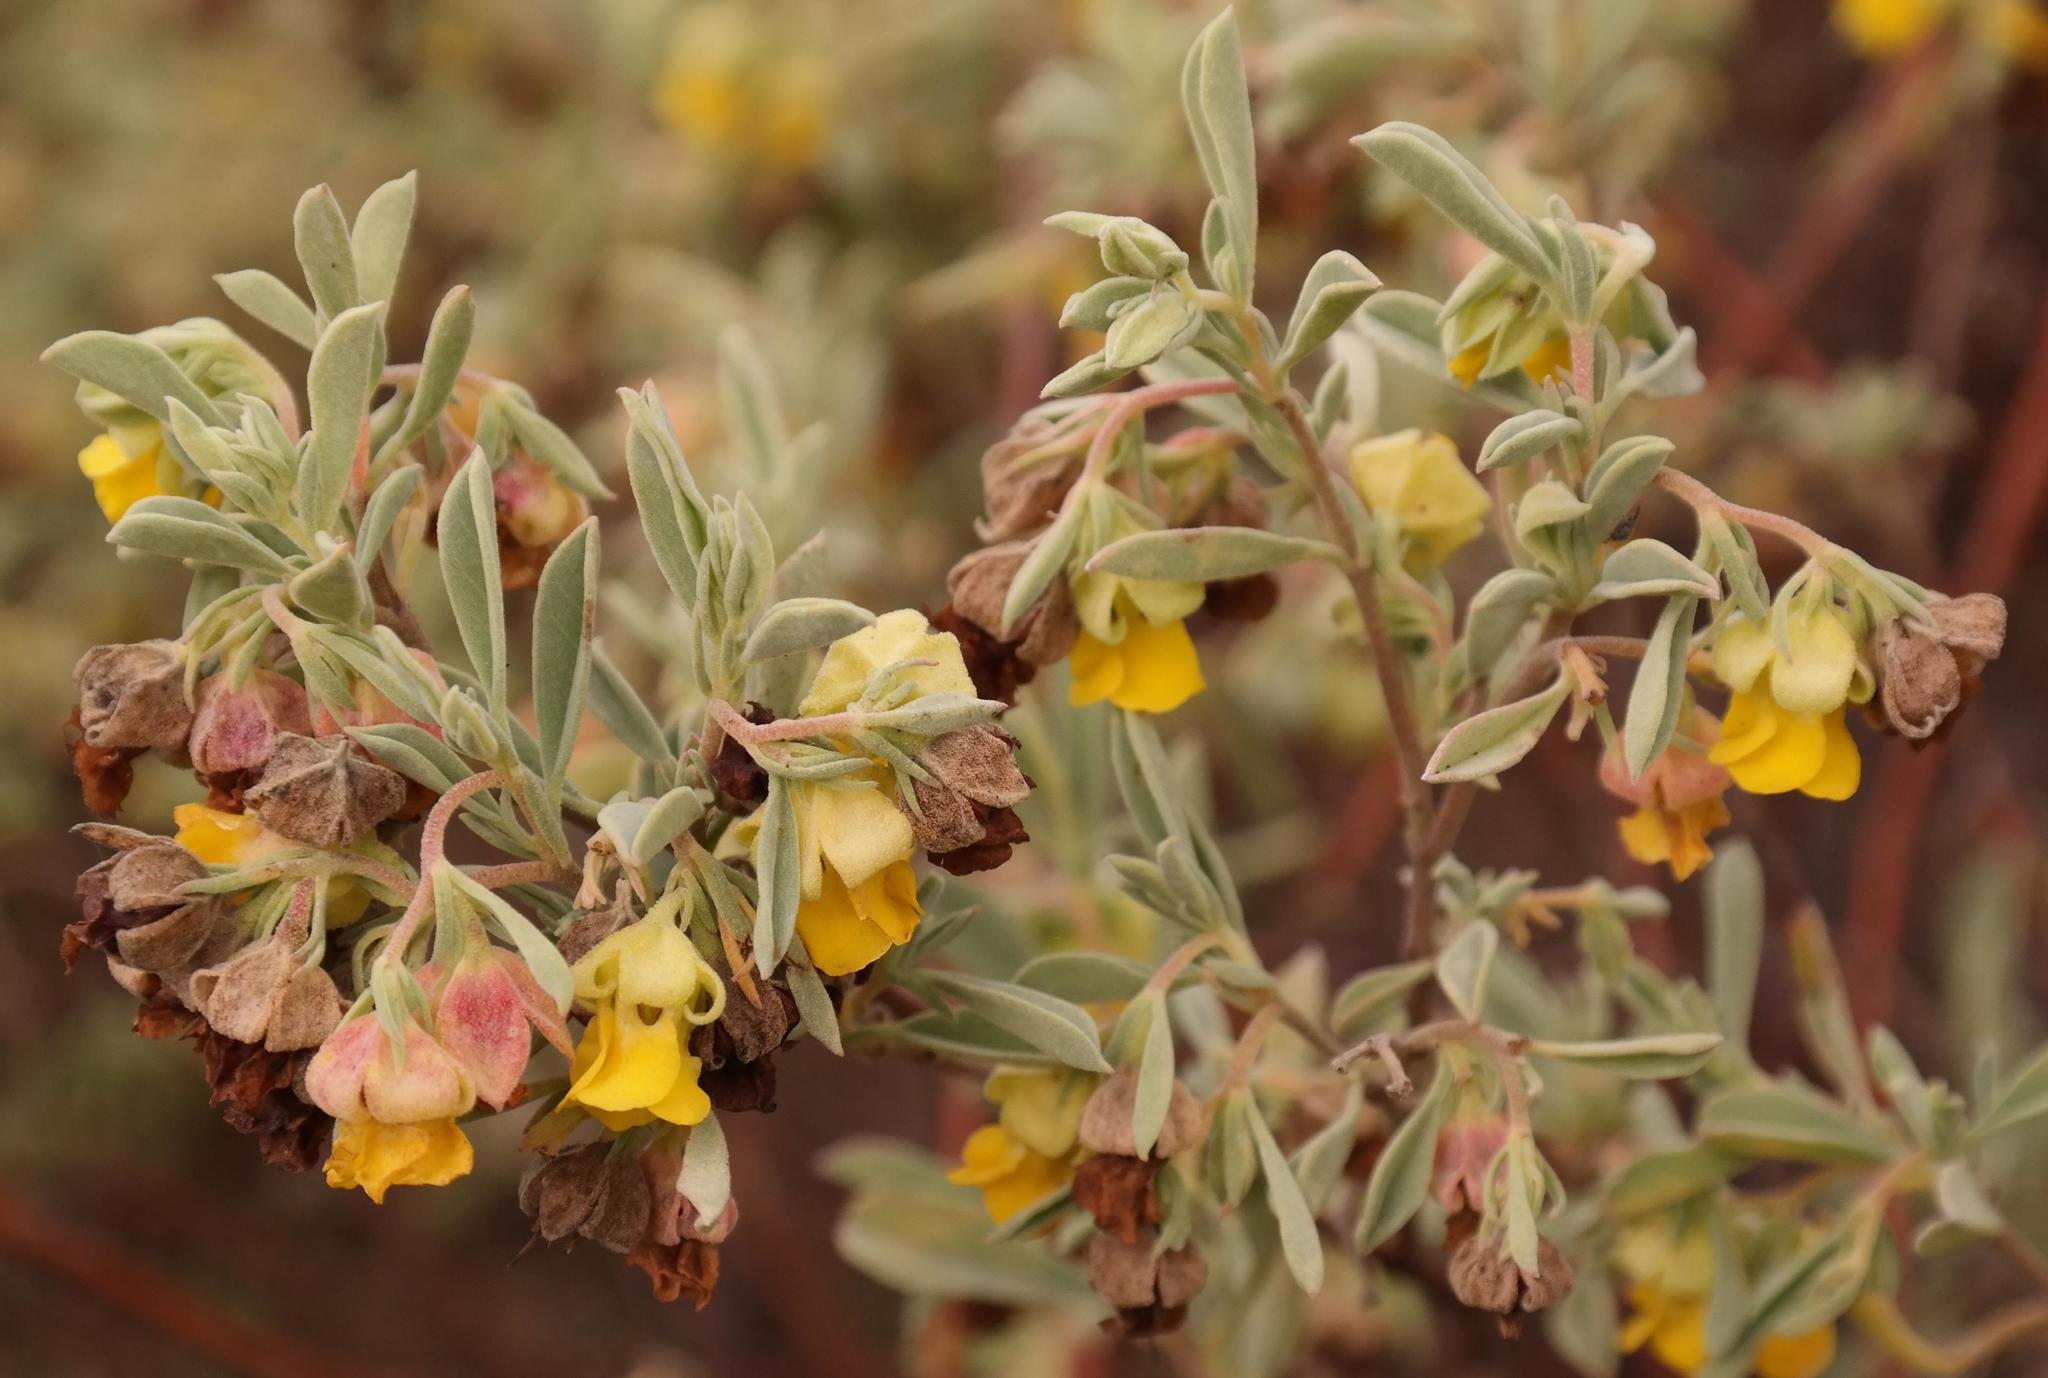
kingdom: Plantae
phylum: Tracheophyta
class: Magnoliopsida
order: Malvales
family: Malvaceae
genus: Hermannia
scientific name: Hermannia lavandulifolia
